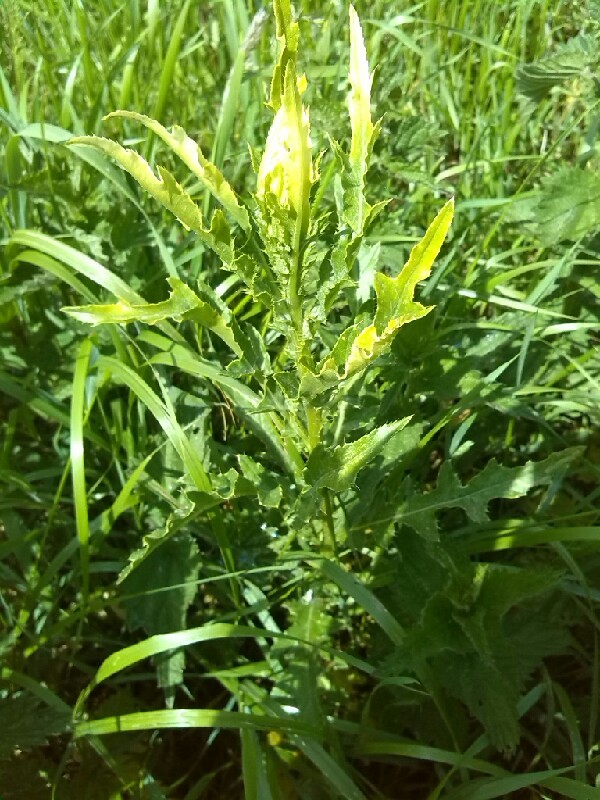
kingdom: Bacteria
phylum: Proteobacteria
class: Gammaproteobacteria
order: Pseudomonadales
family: Pseudomonadaceae
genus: Pseudomonas
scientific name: Pseudomonas syringae
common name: Bacterial speck
